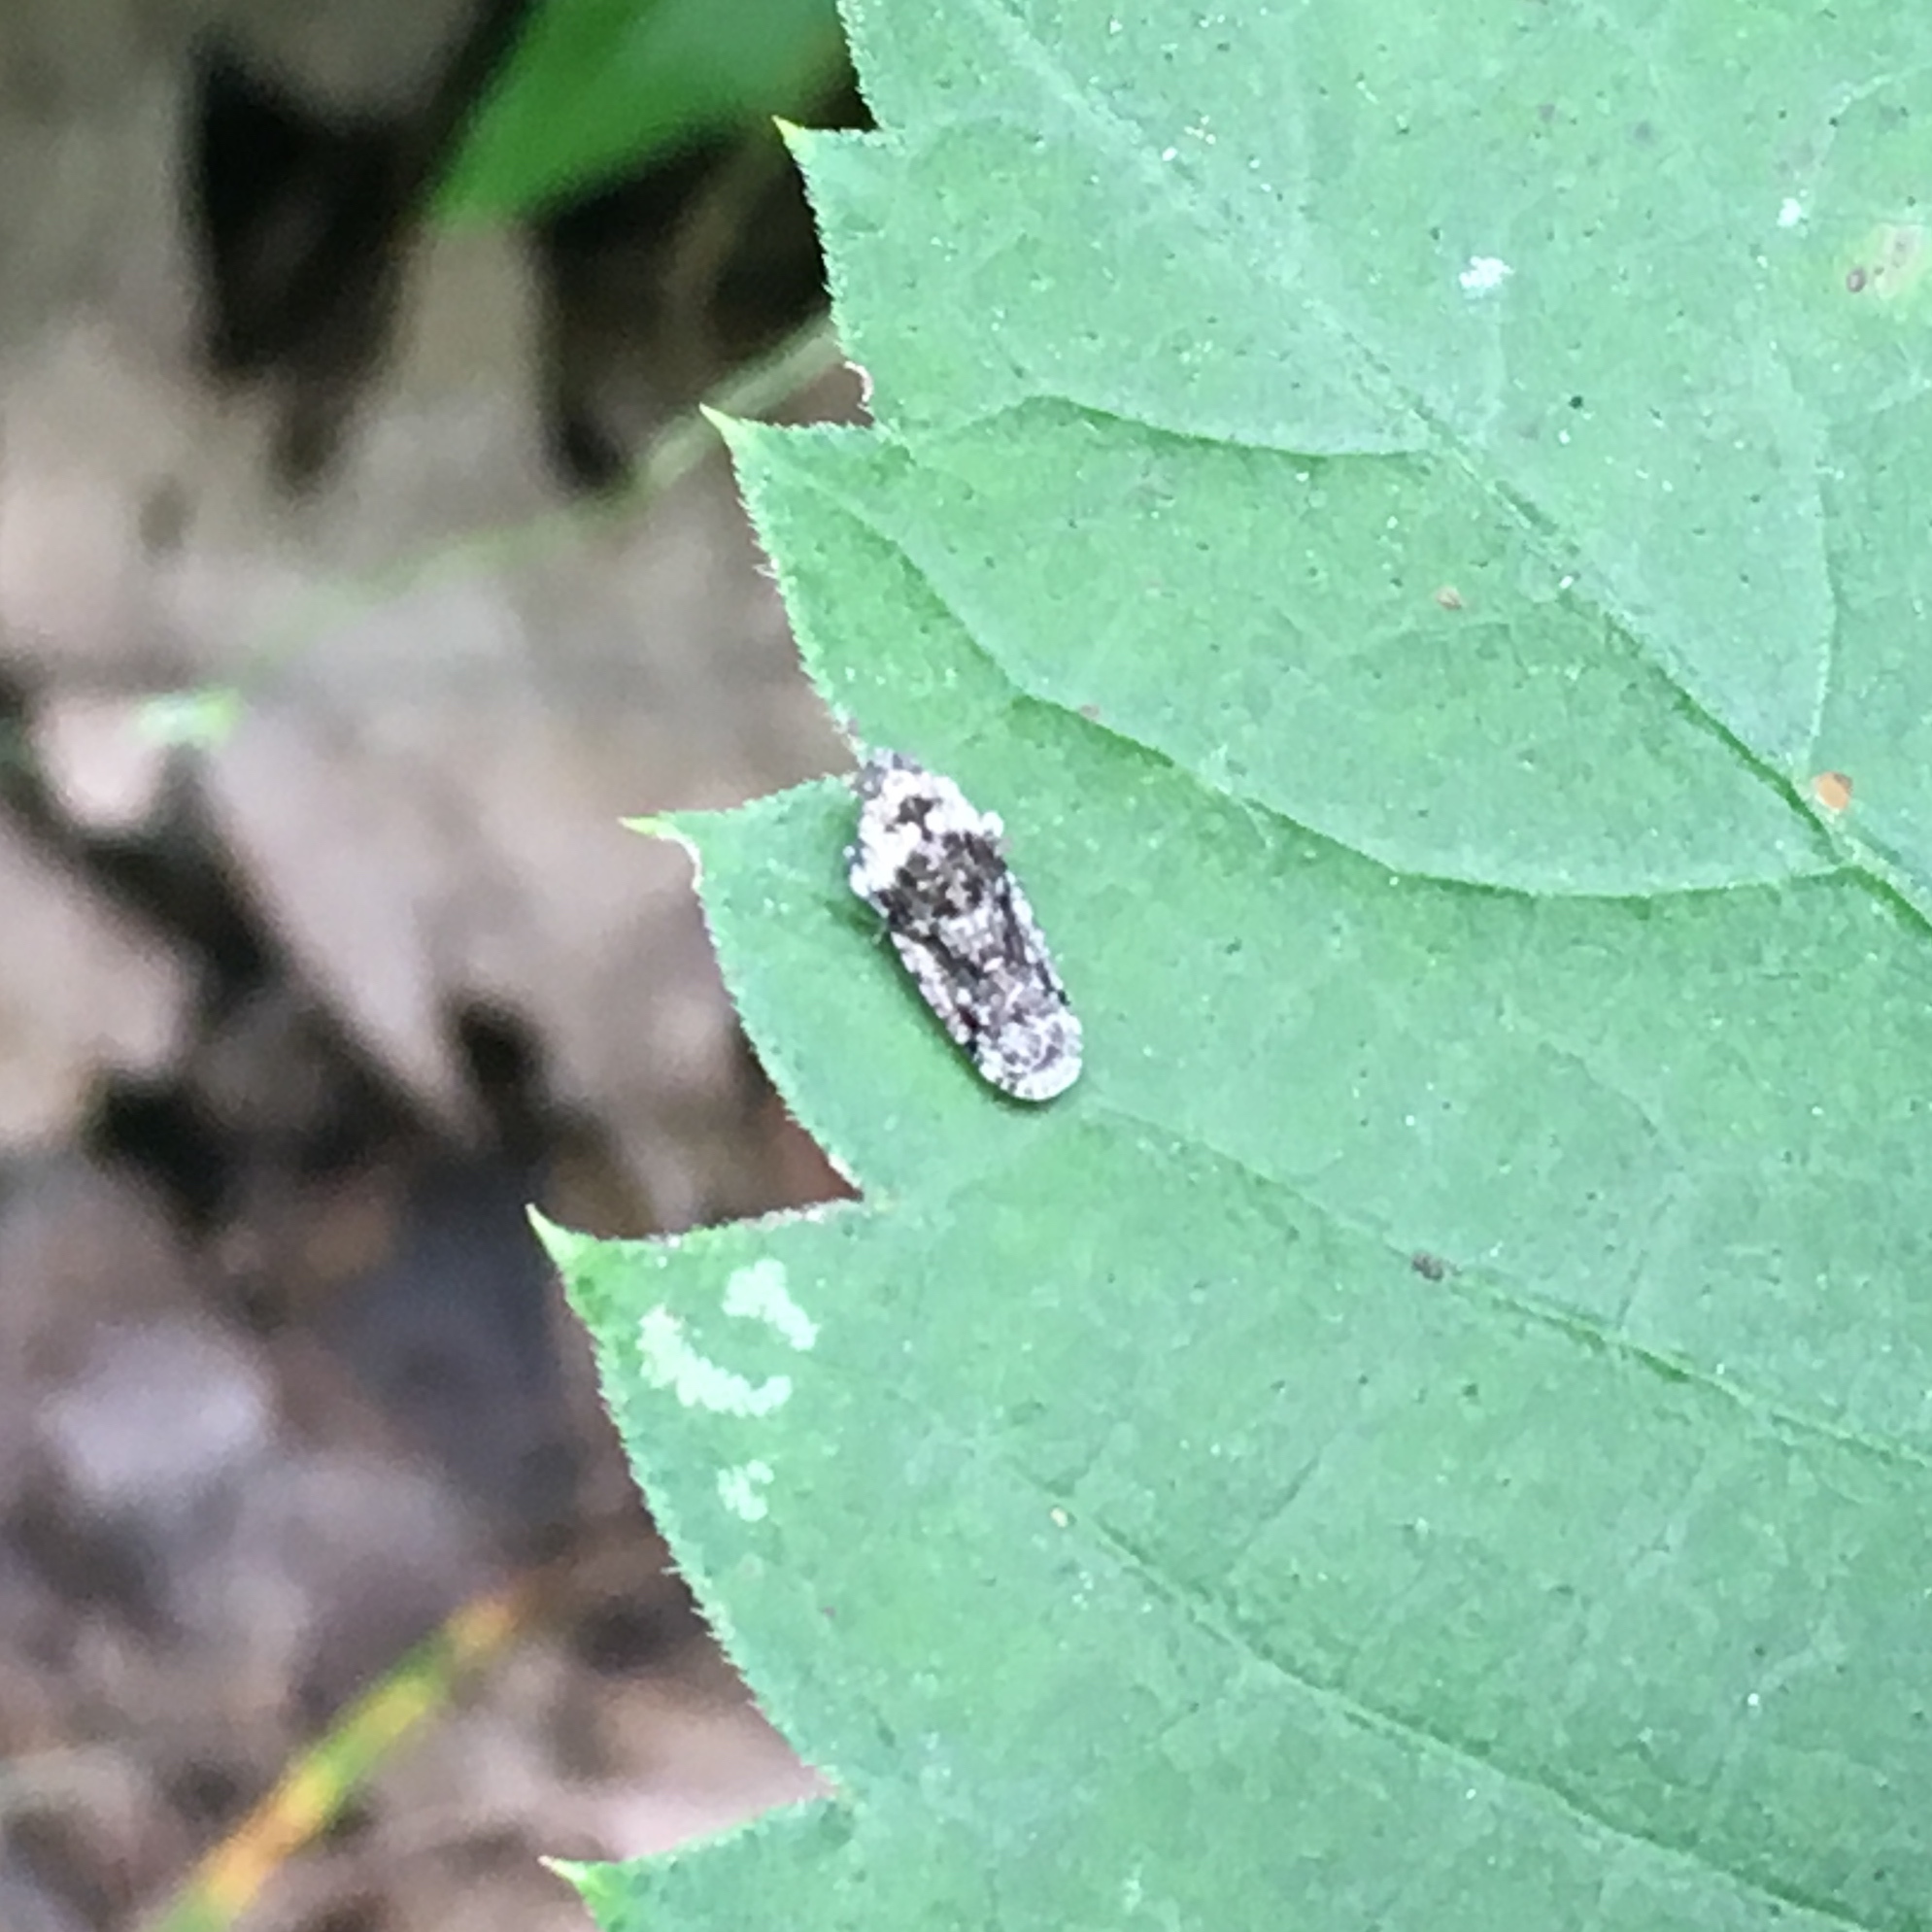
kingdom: Animalia
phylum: Arthropoda
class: Insecta
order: Hemiptera
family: Achilidae
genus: Catonia
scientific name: Catonia nava
